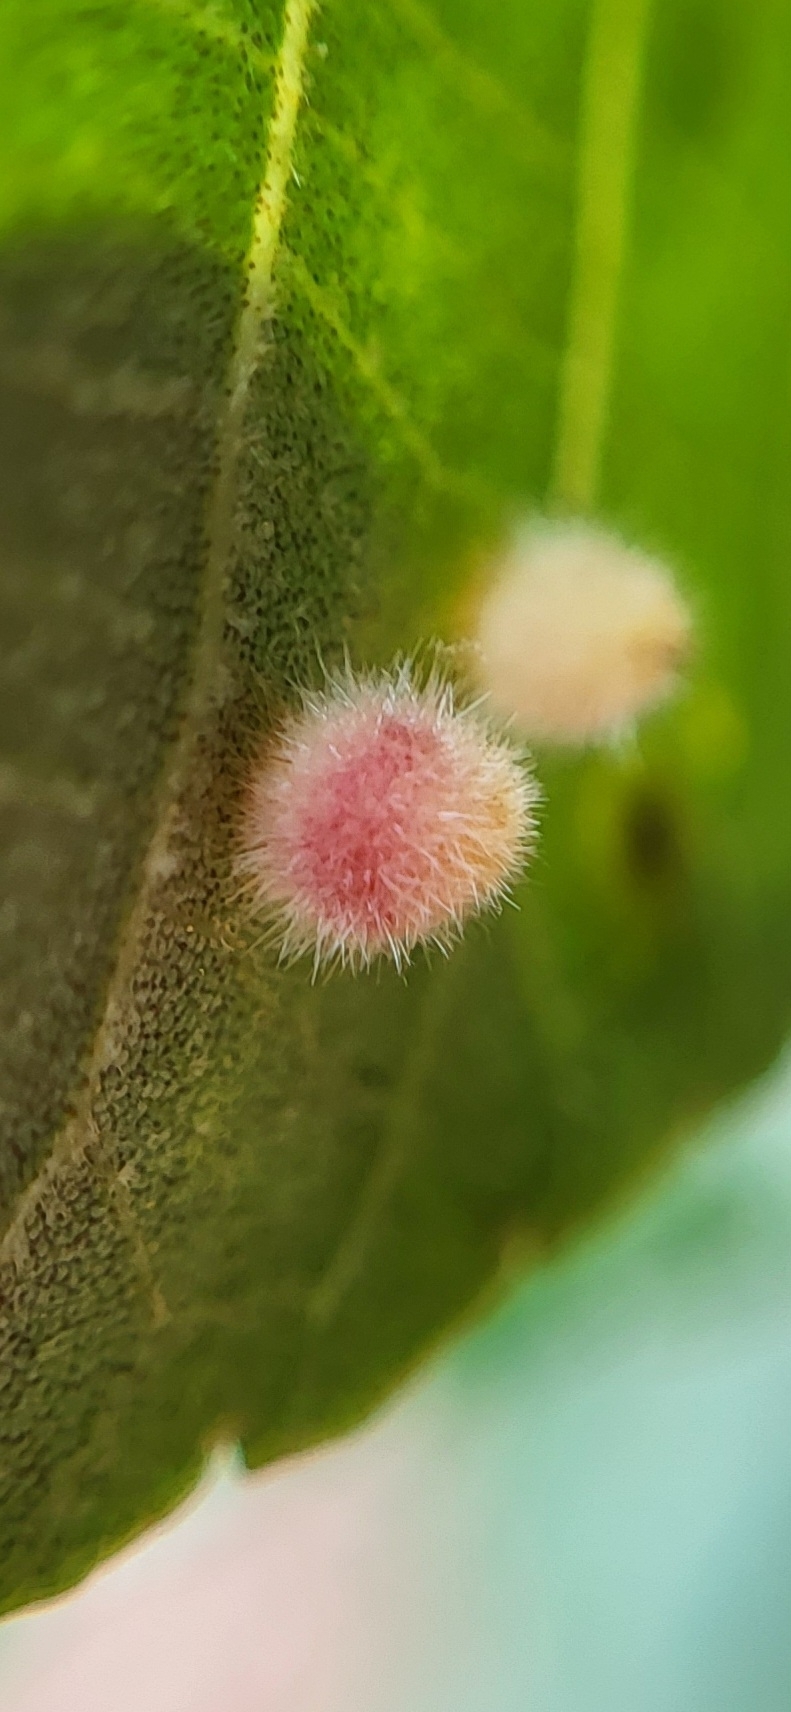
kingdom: Animalia
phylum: Arthropoda
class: Insecta
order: Diptera
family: Cecidomyiidae
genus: Caryomyia
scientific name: Caryomyia purpurea
